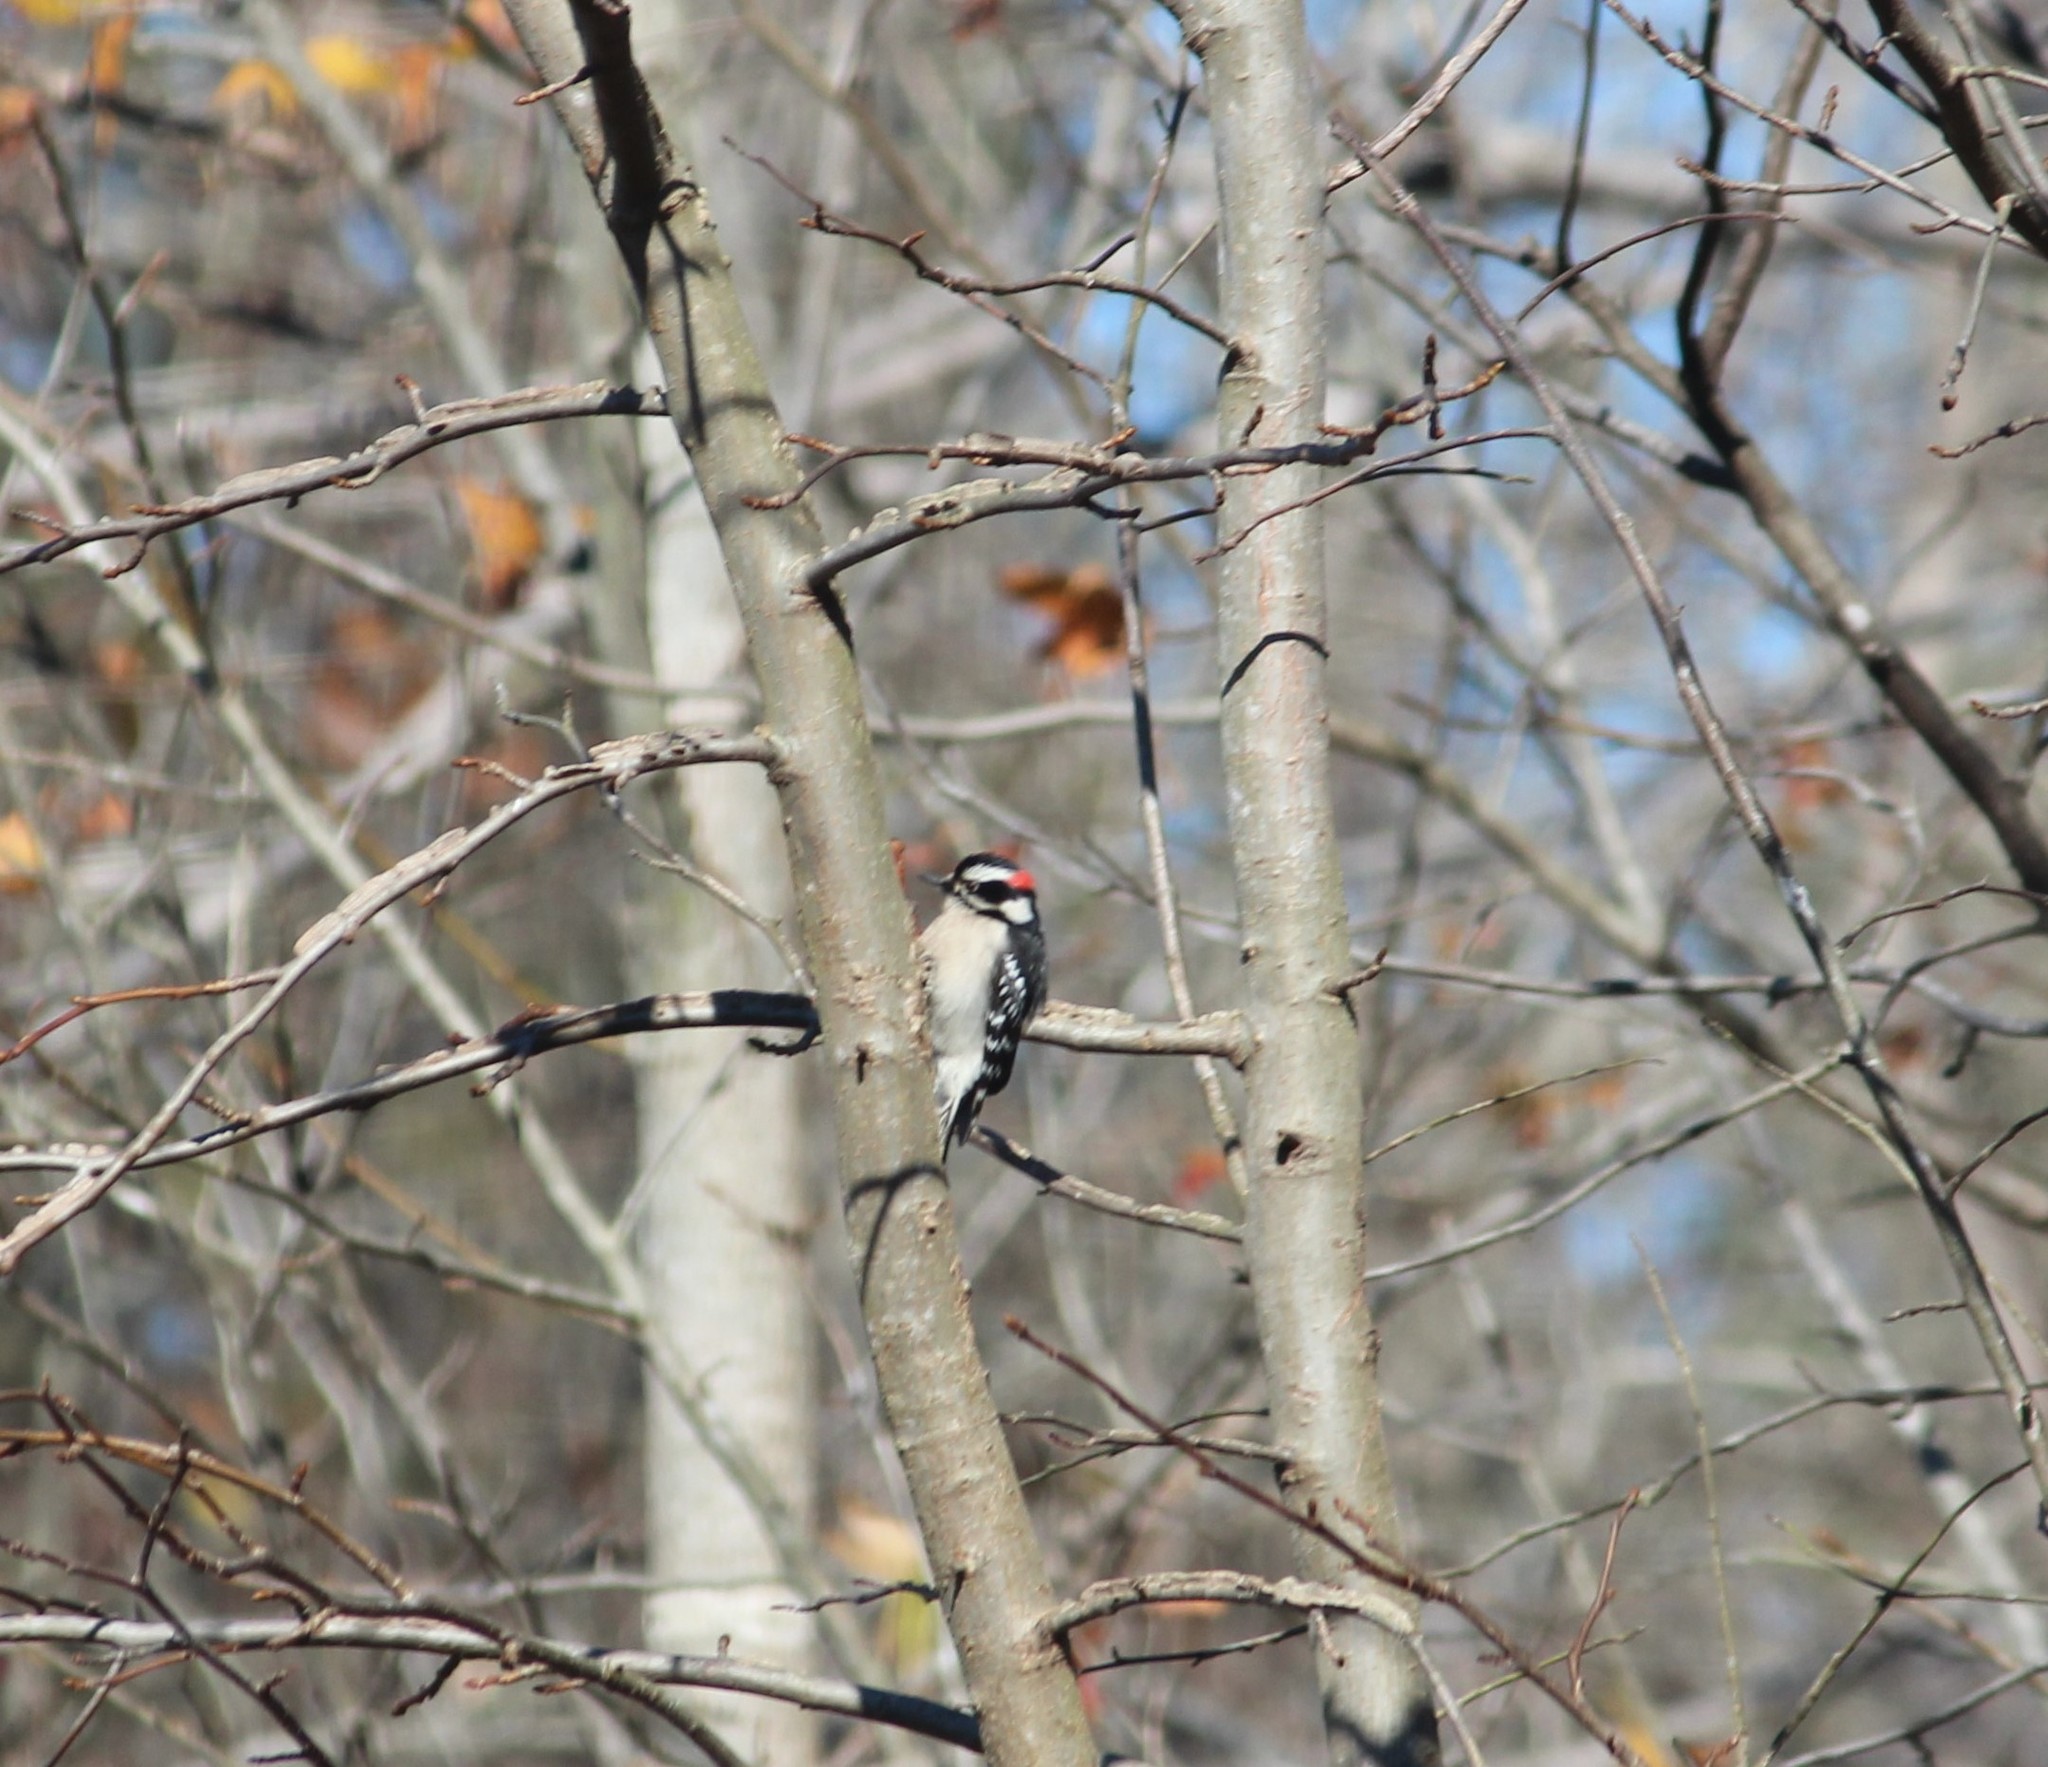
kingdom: Animalia
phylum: Chordata
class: Aves
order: Piciformes
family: Picidae
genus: Dryobates
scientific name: Dryobates pubescens
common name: Downy woodpecker
